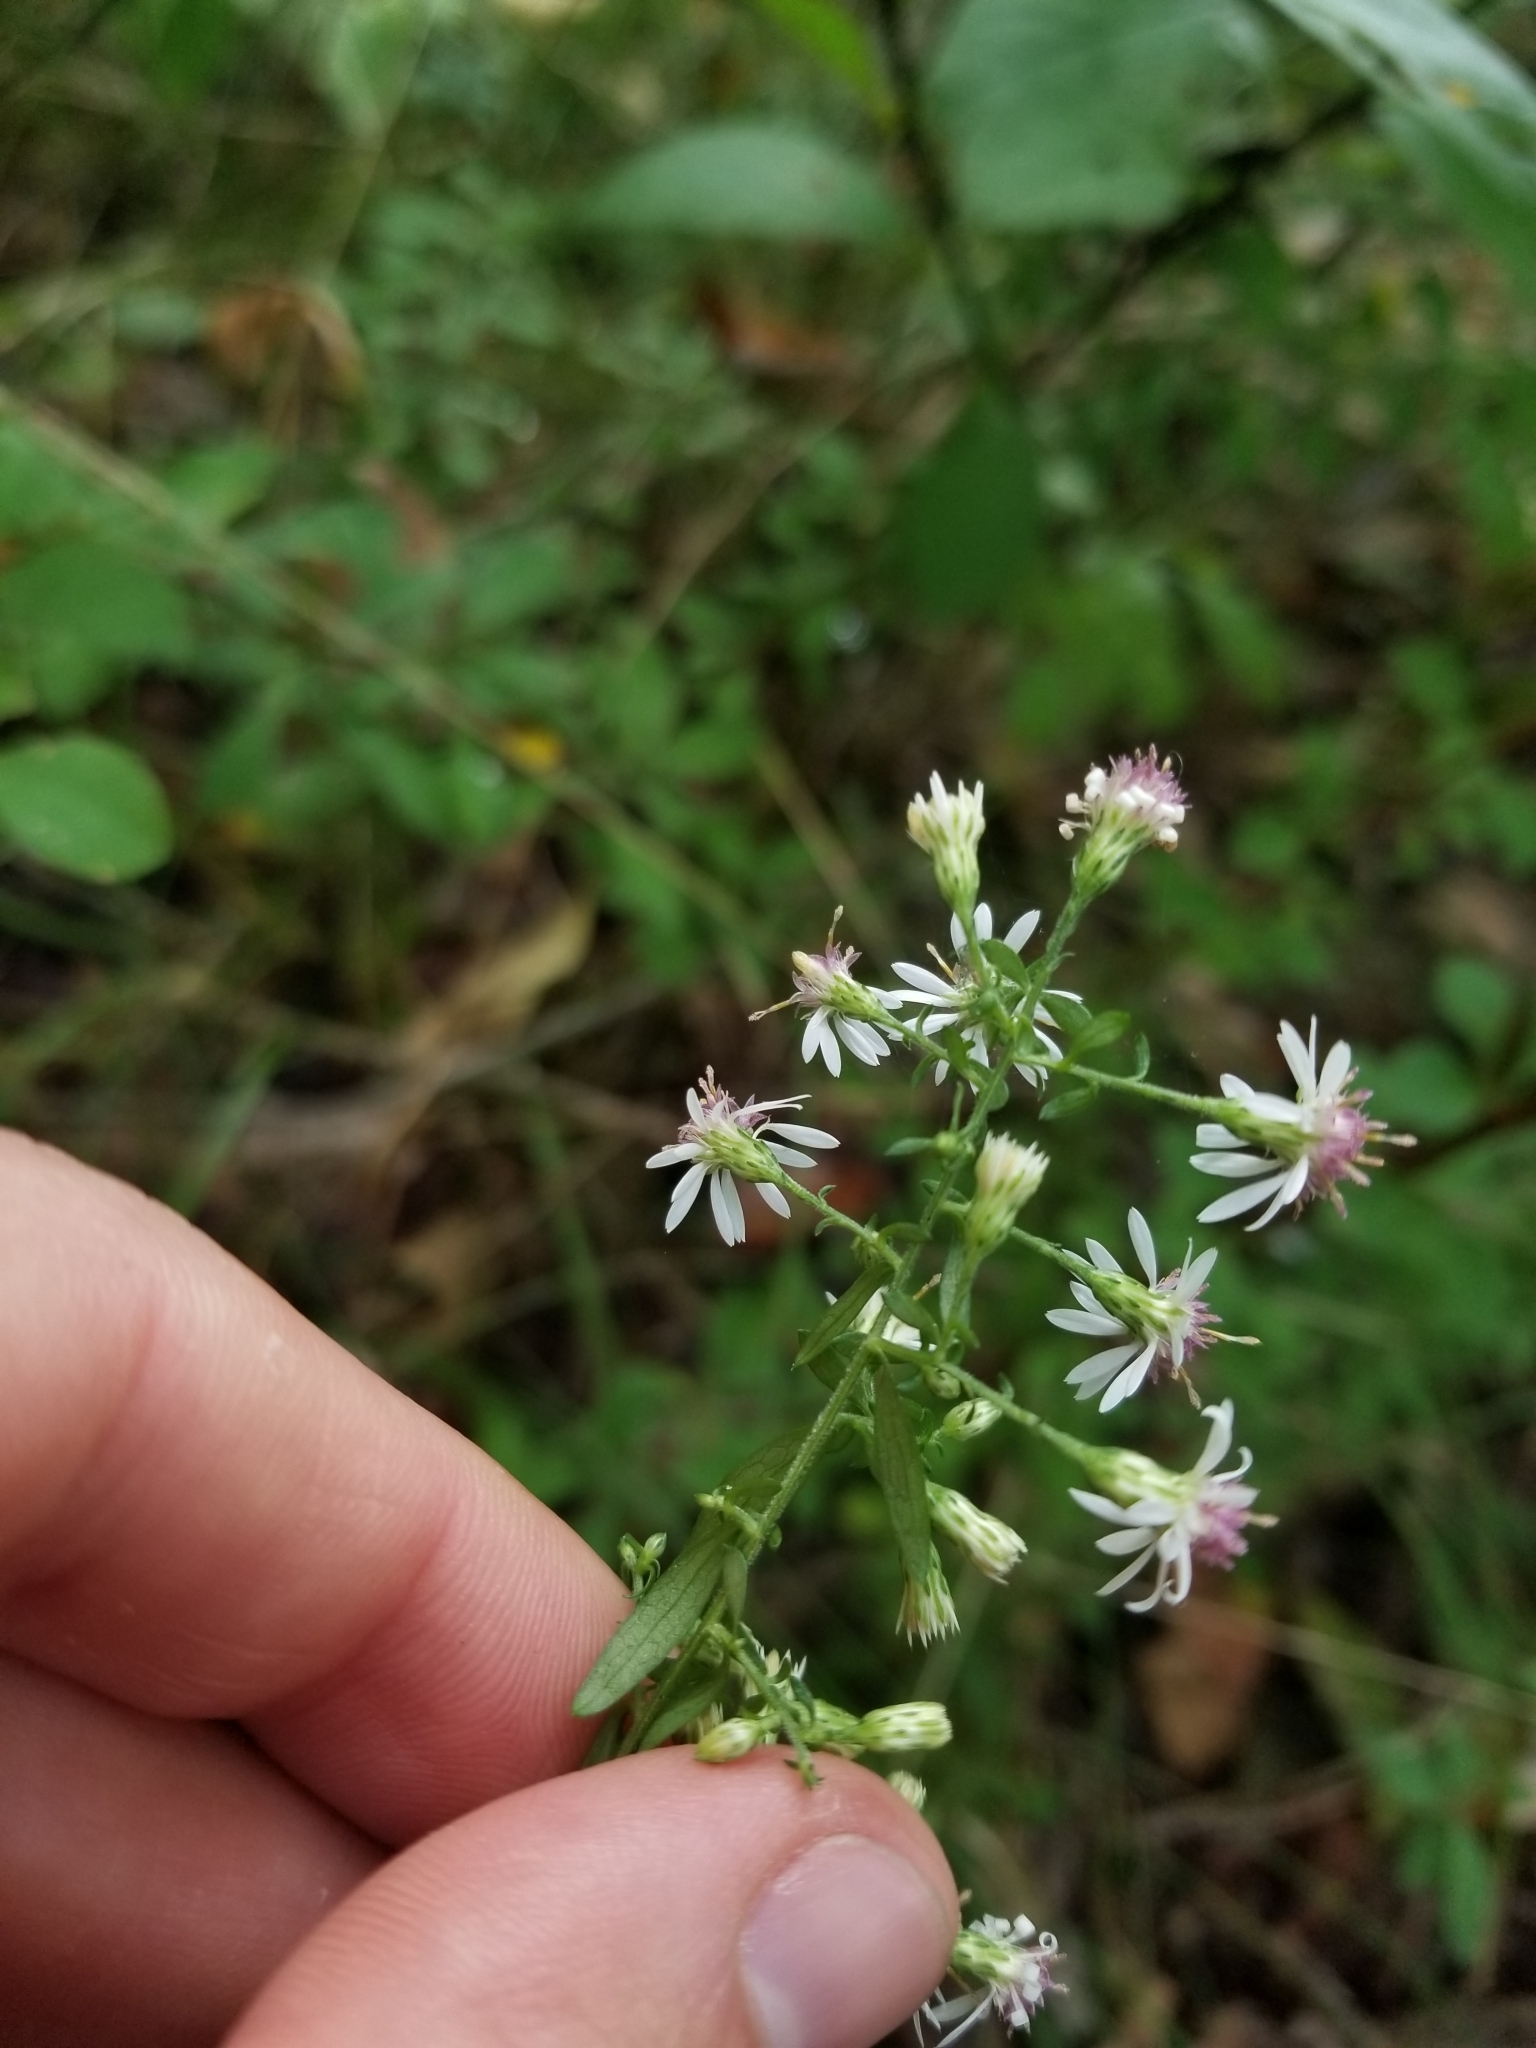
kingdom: Plantae
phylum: Tracheophyta
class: Magnoliopsida
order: Asterales
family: Asteraceae
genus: Symphyotrichum
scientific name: Symphyotrichum lateriflorum
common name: Calico aster
